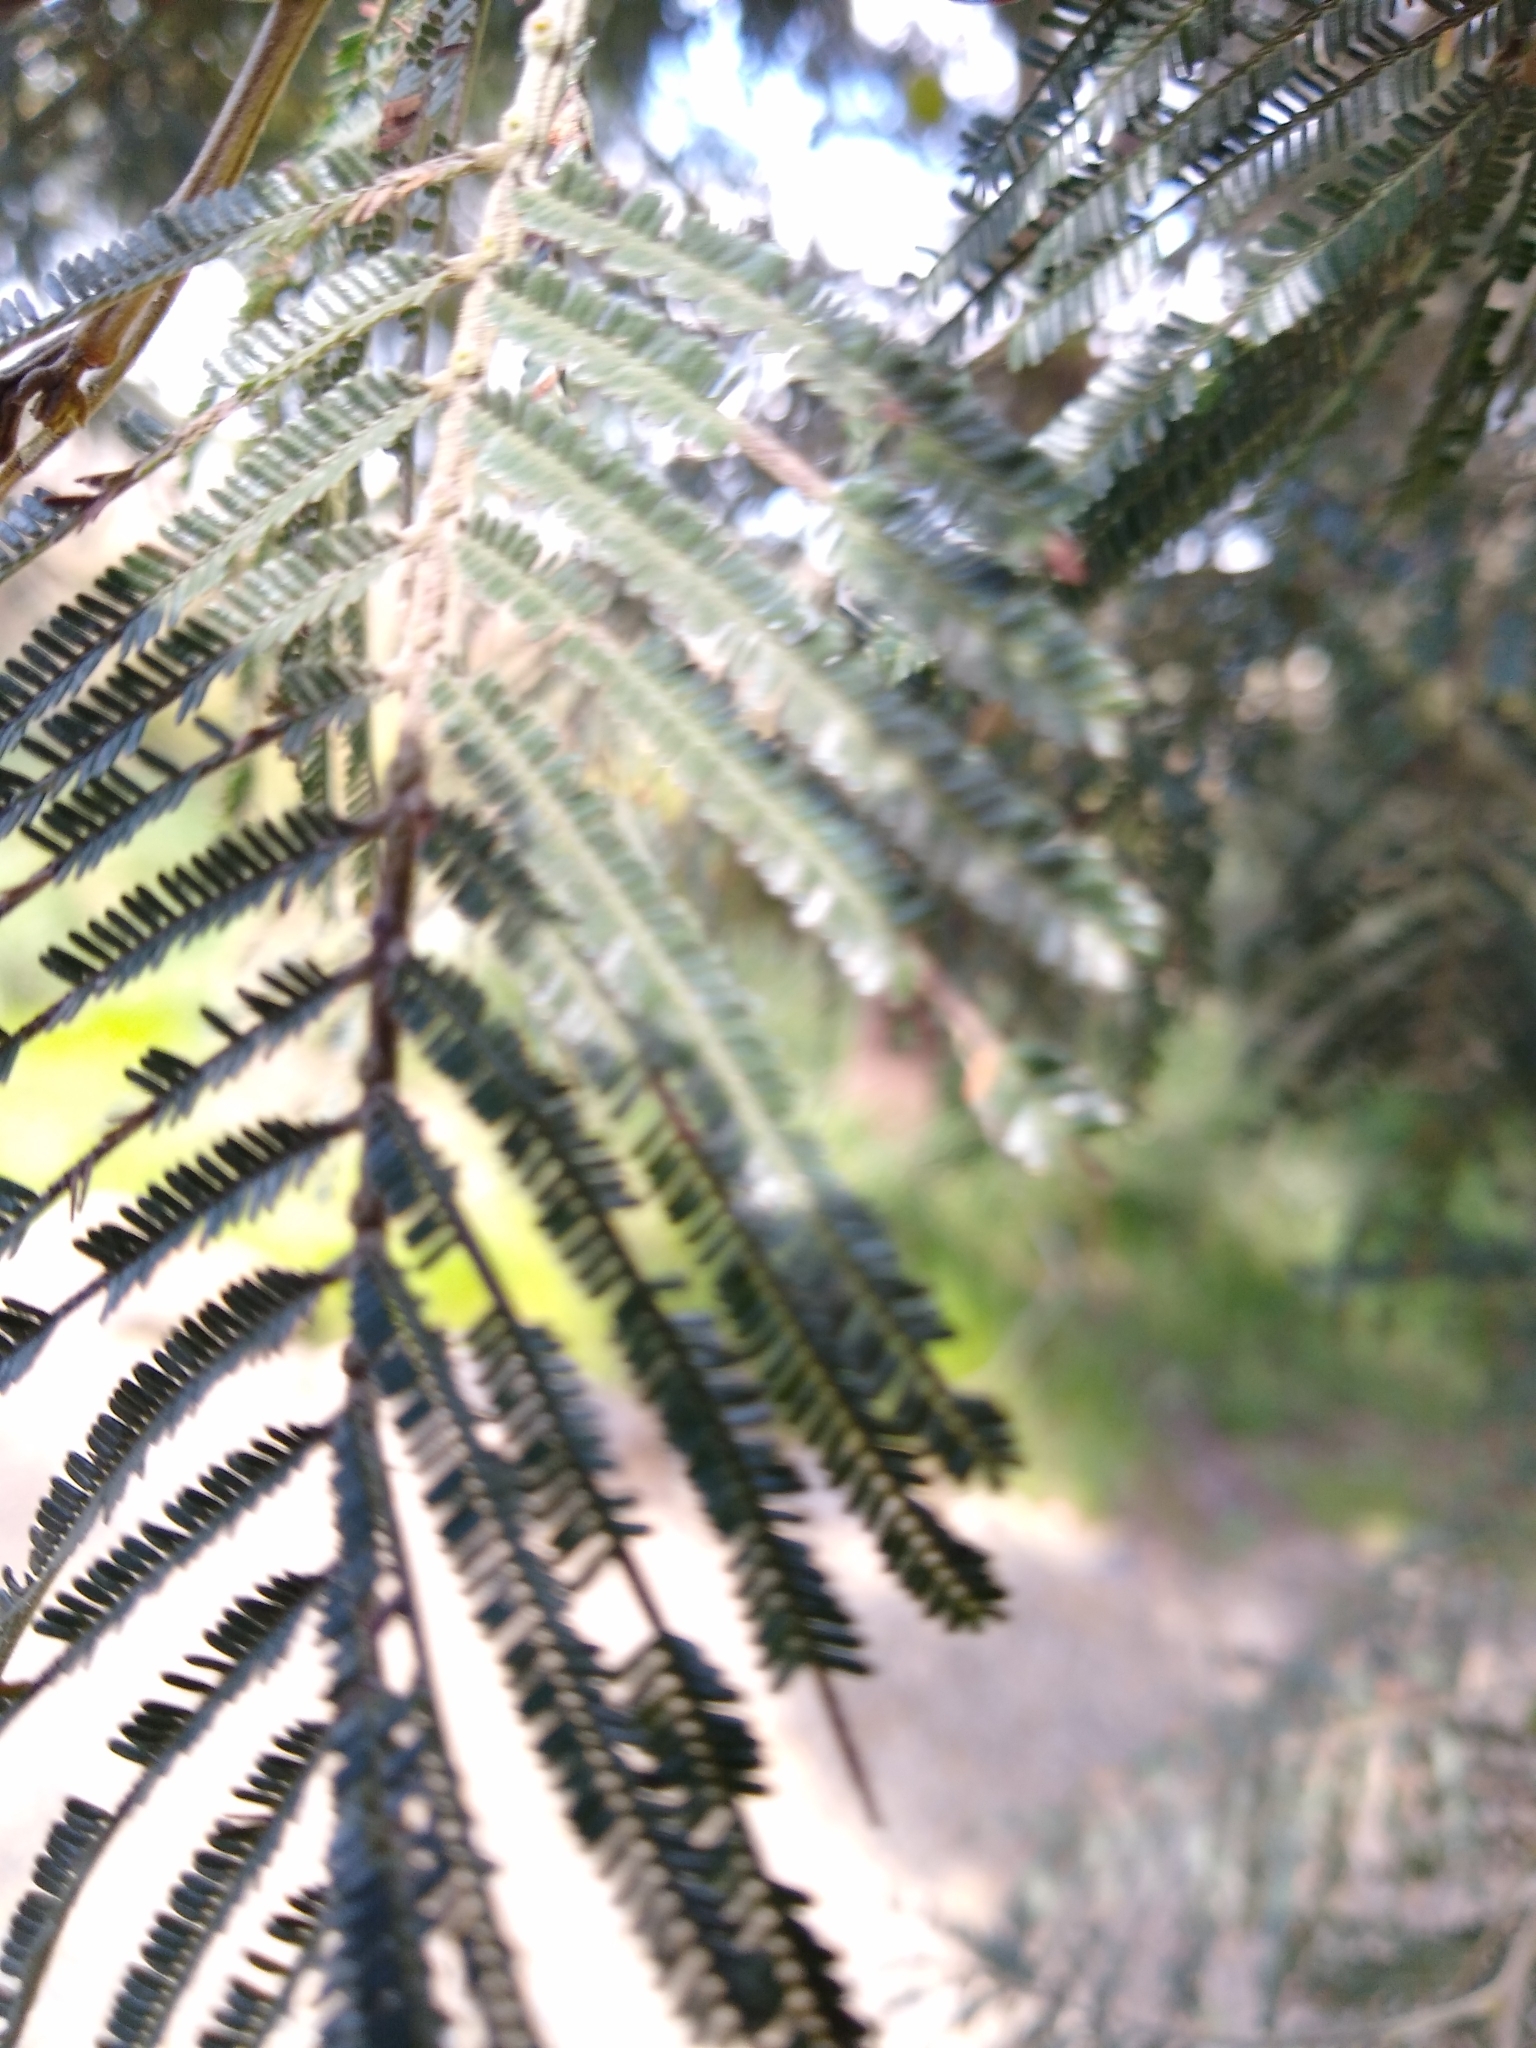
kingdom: Plantae
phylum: Tracheophyta
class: Magnoliopsida
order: Fabales
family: Fabaceae
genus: Acacia
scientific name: Acacia mearnsii
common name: Black wattle
